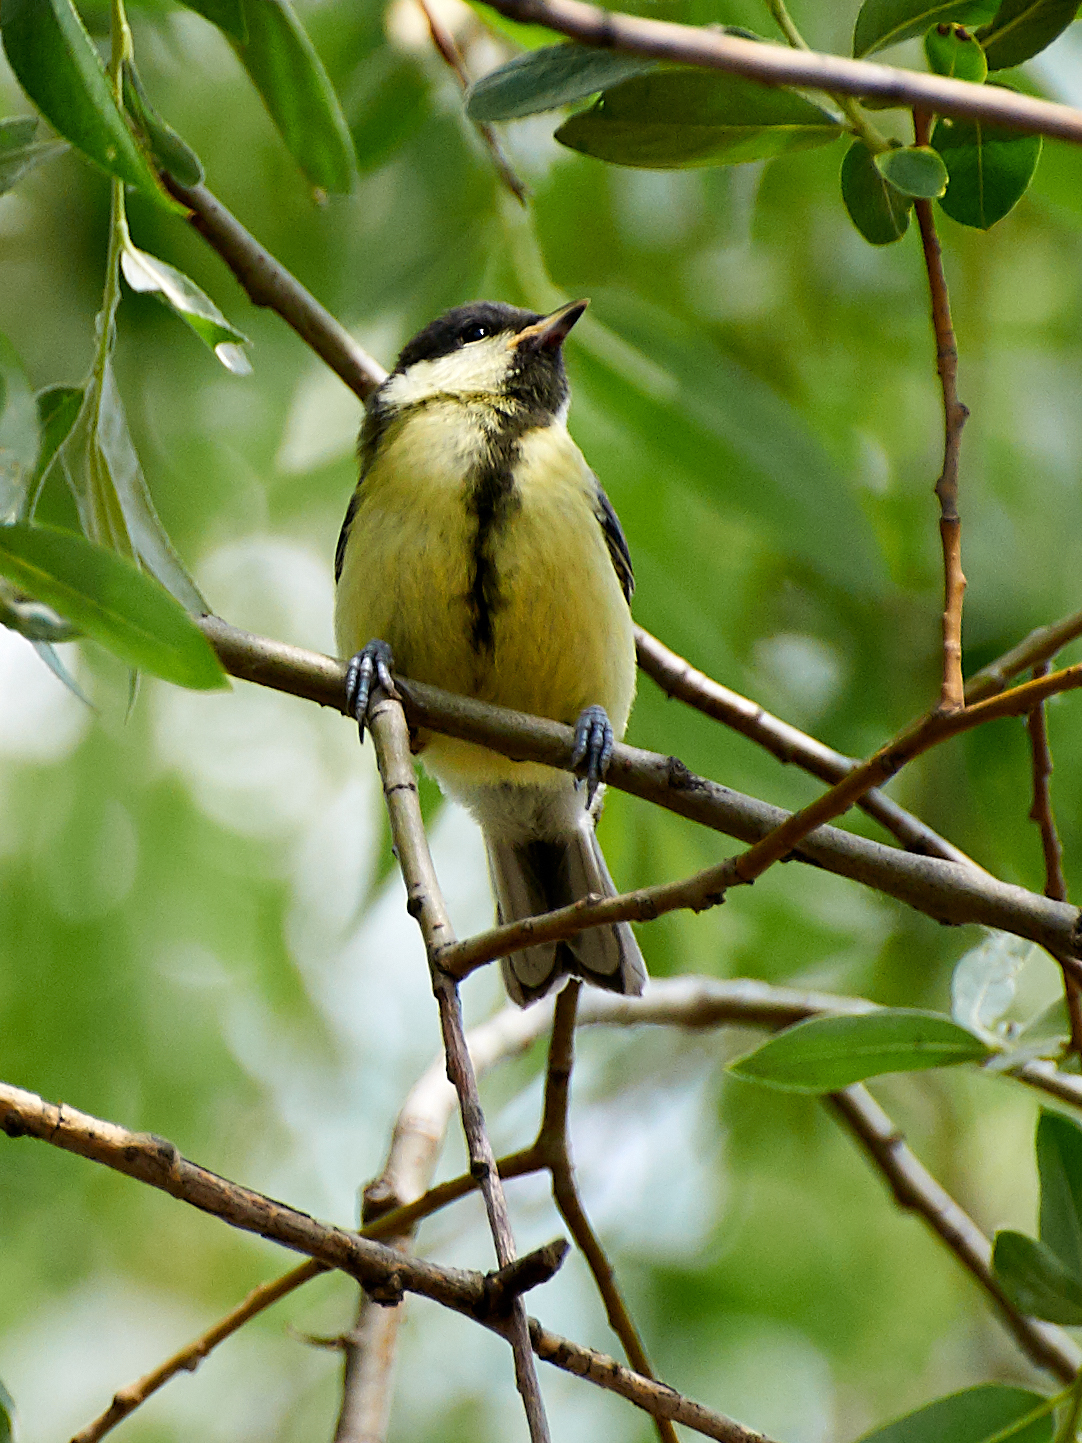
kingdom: Animalia
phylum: Chordata
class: Aves
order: Passeriformes
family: Paridae
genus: Parus
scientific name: Parus major
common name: Great tit
